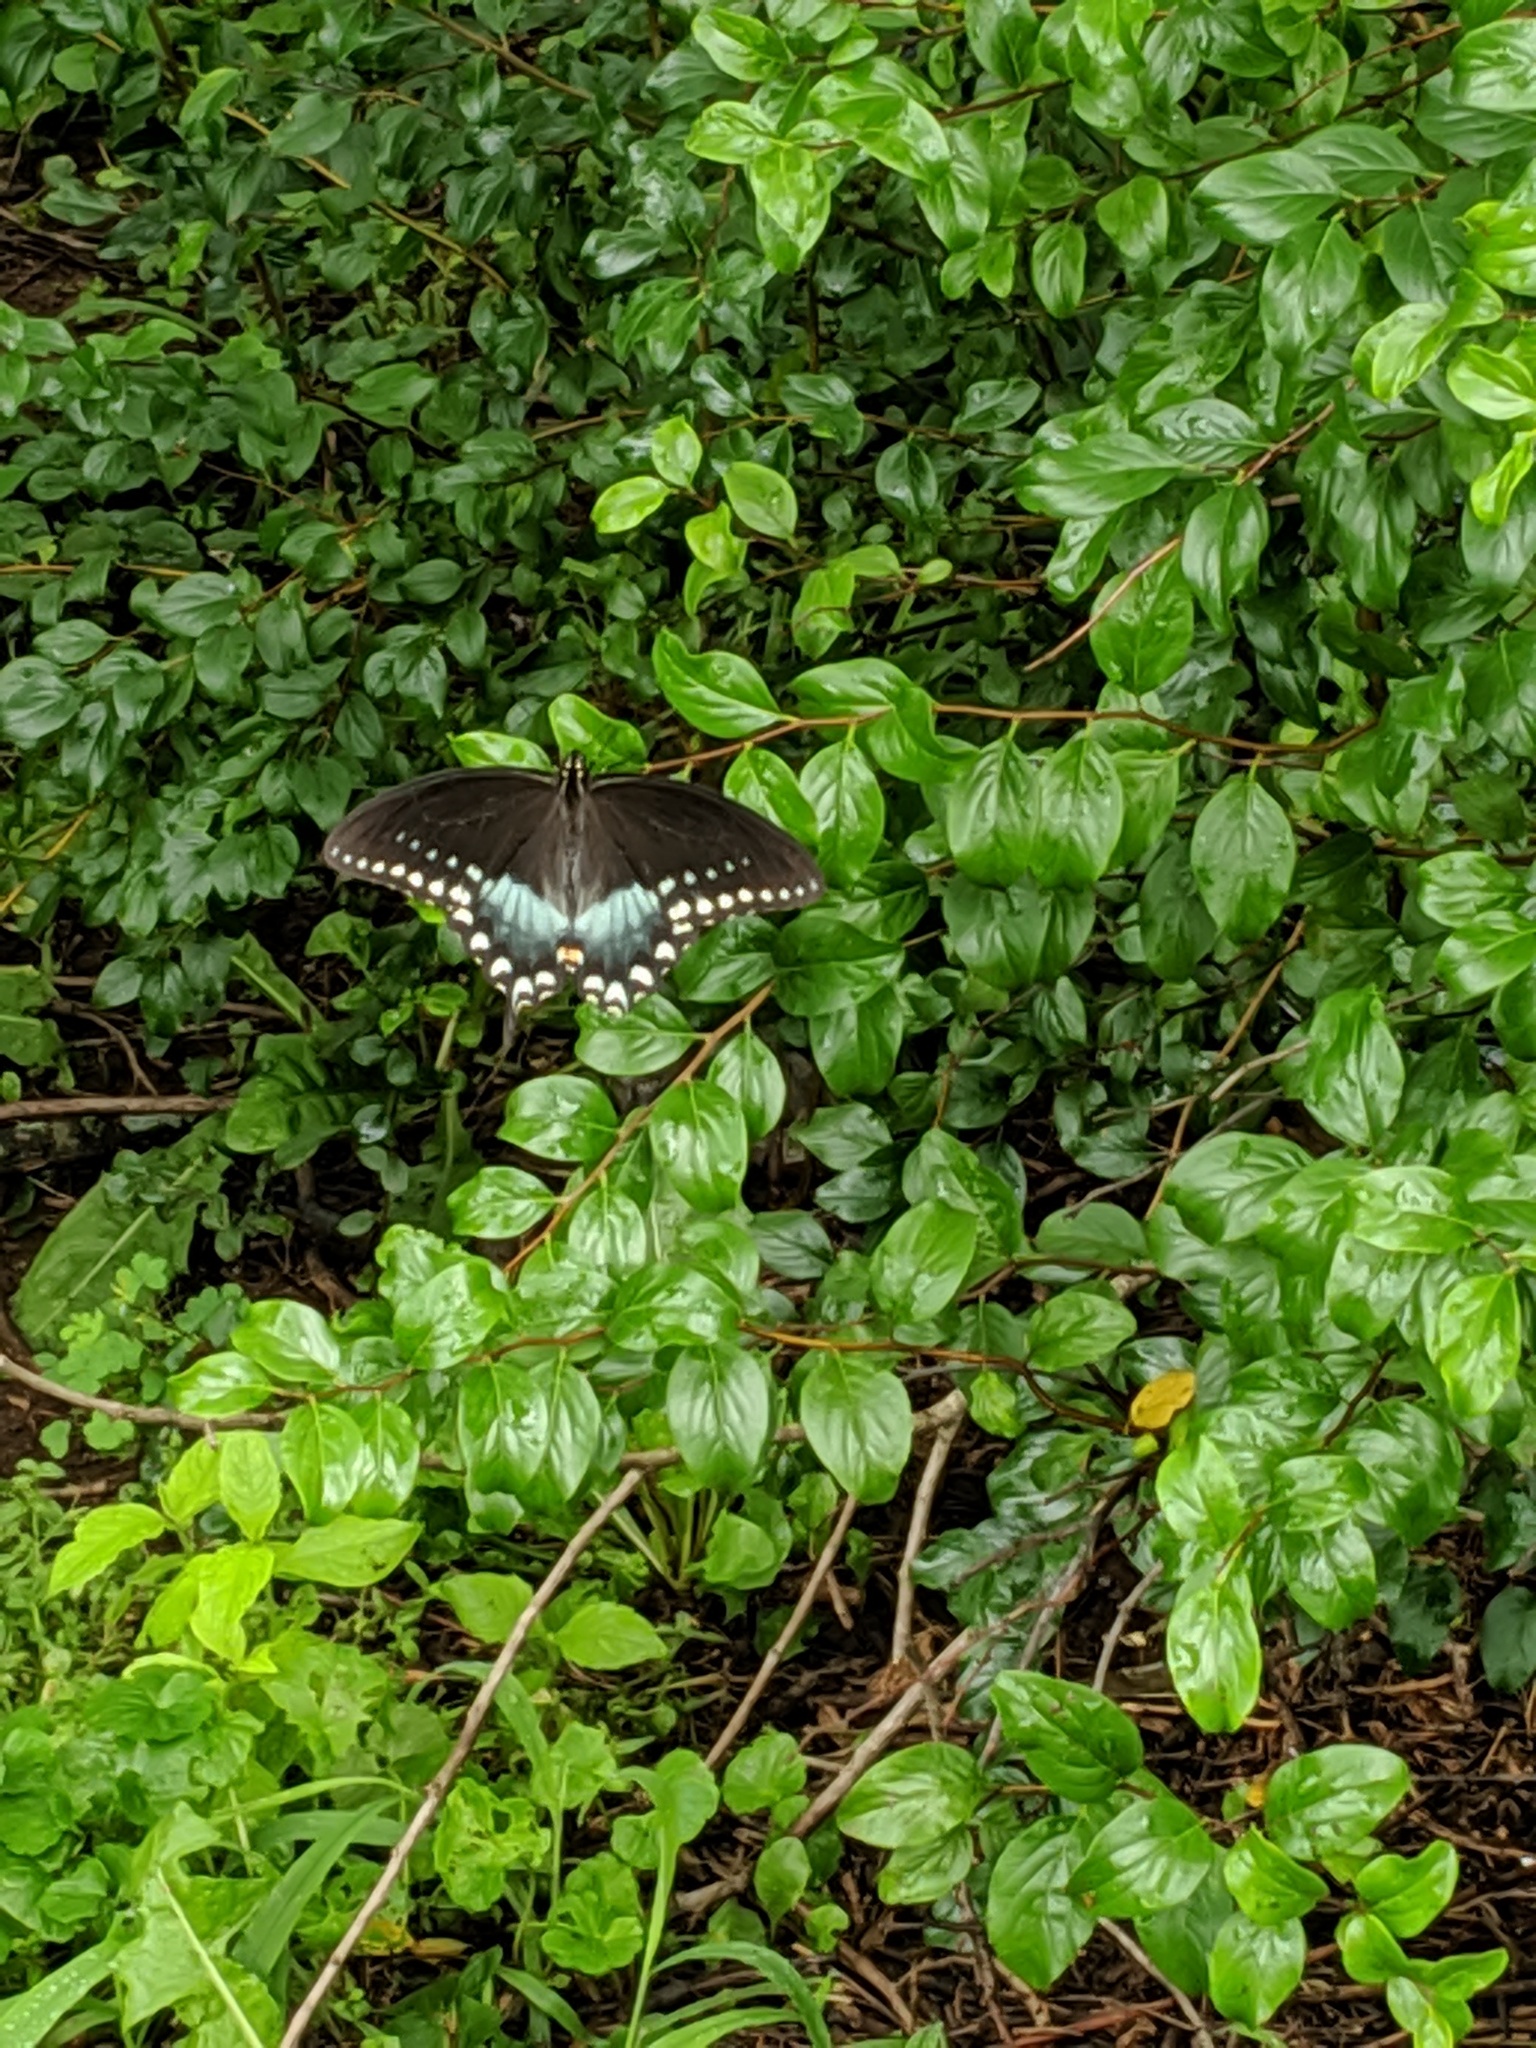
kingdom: Animalia
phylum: Arthropoda
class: Insecta
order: Lepidoptera
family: Papilionidae
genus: Papilio
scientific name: Papilio troilus
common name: Spicebush swallowtail
